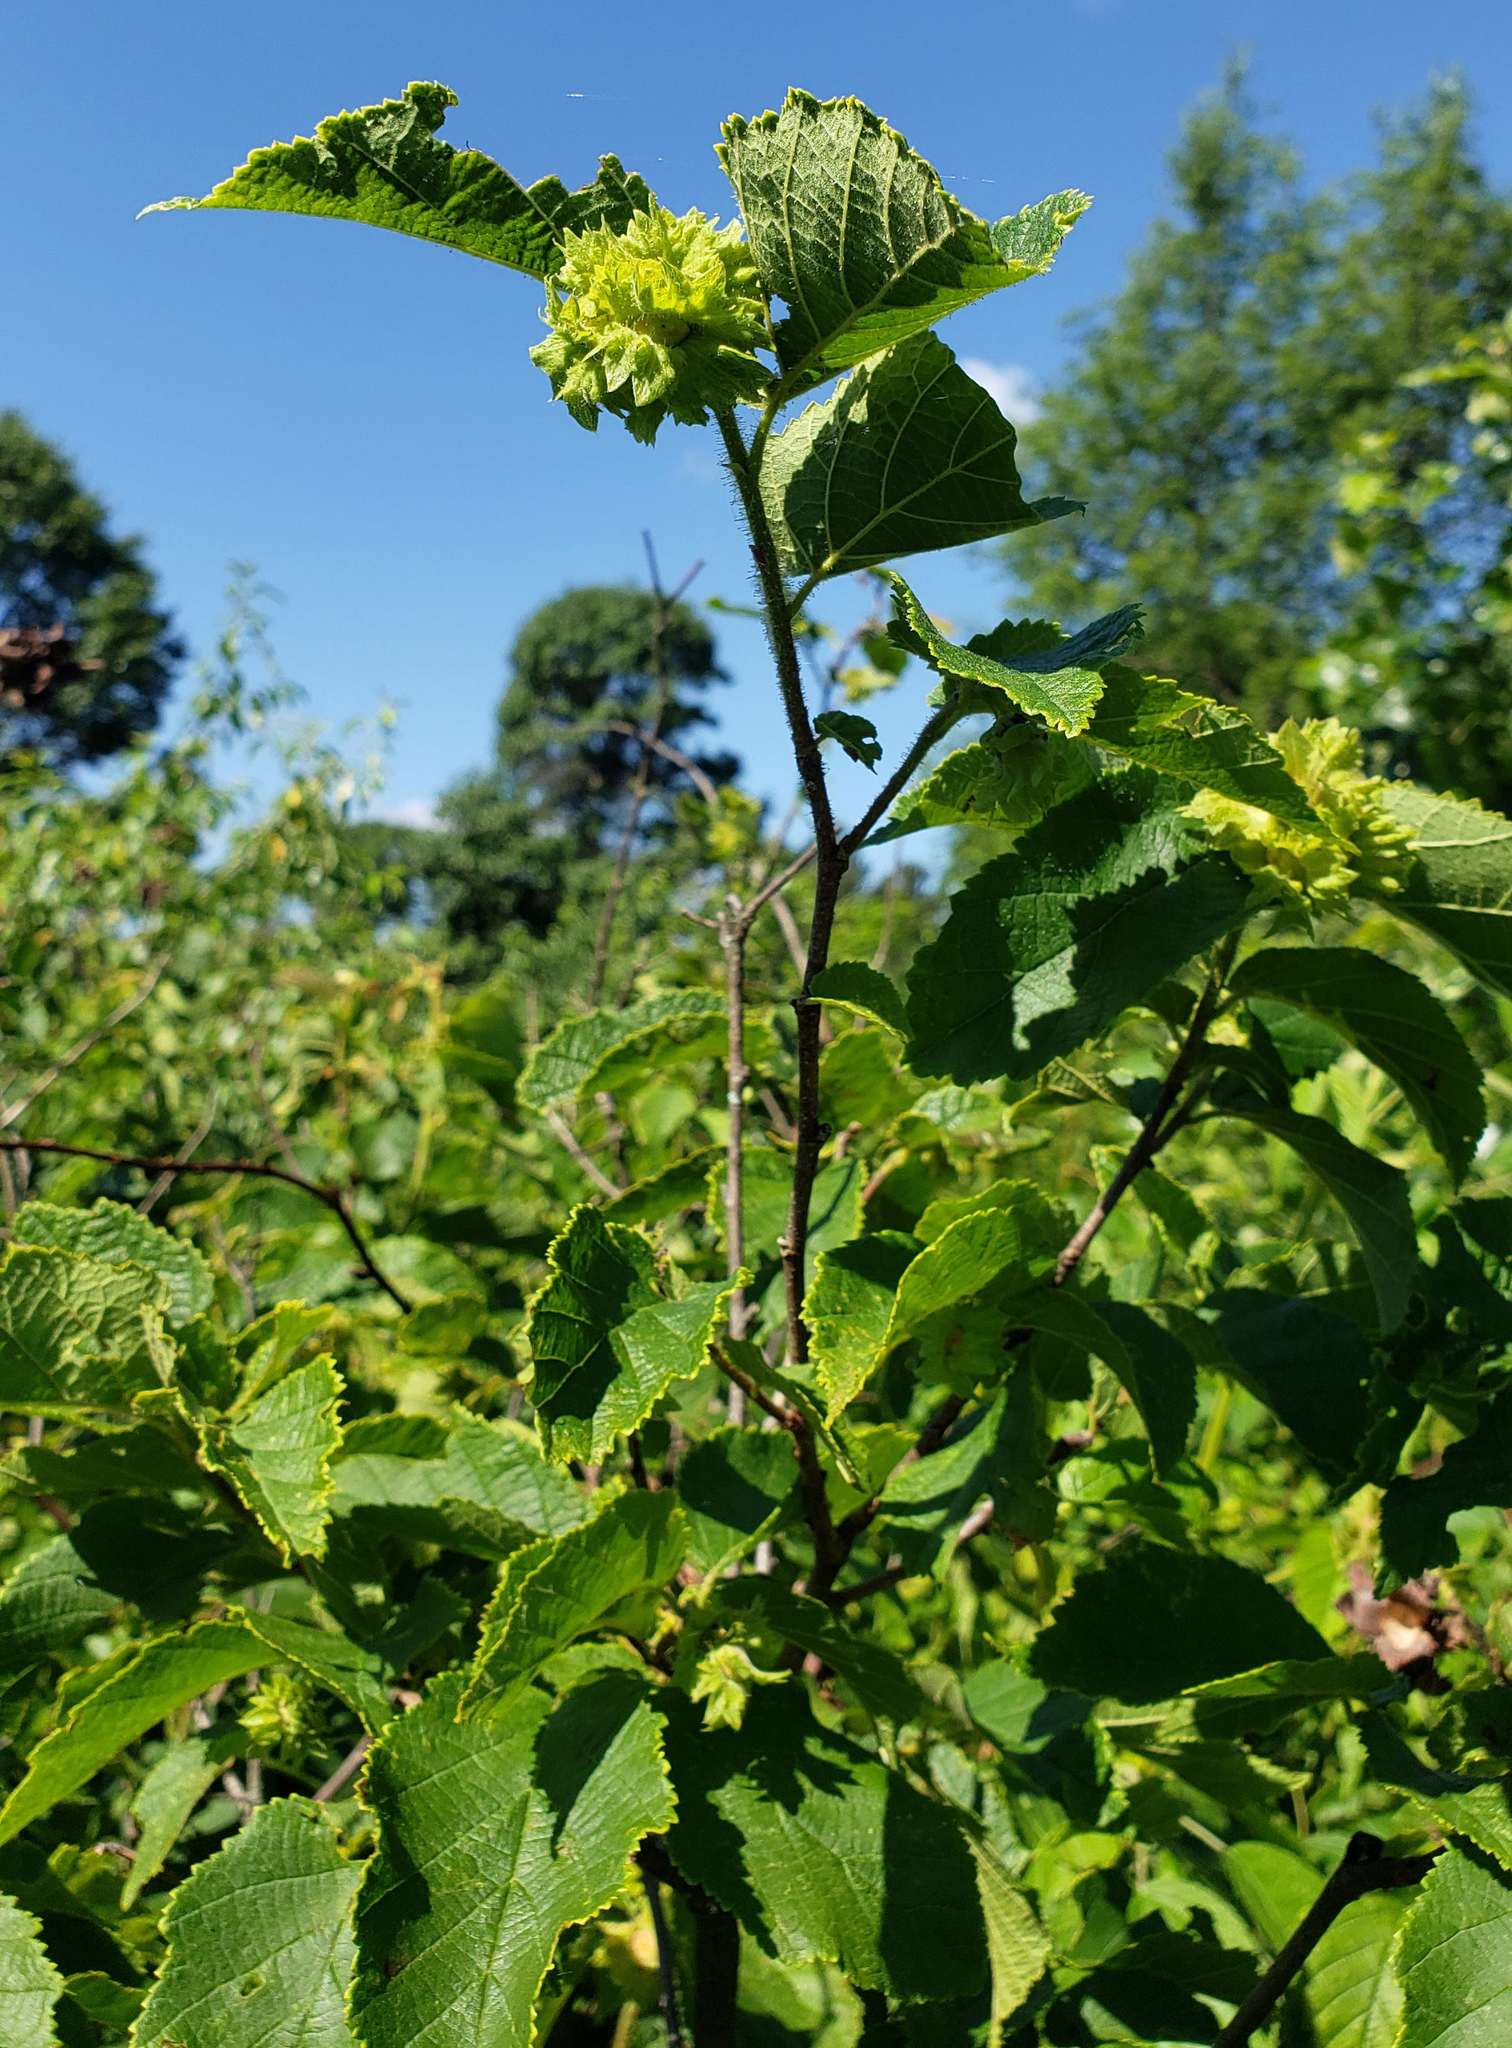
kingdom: Plantae
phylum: Tracheophyta
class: Magnoliopsida
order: Fagales
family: Betulaceae
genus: Corylus
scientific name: Corylus americana
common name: American hazel
